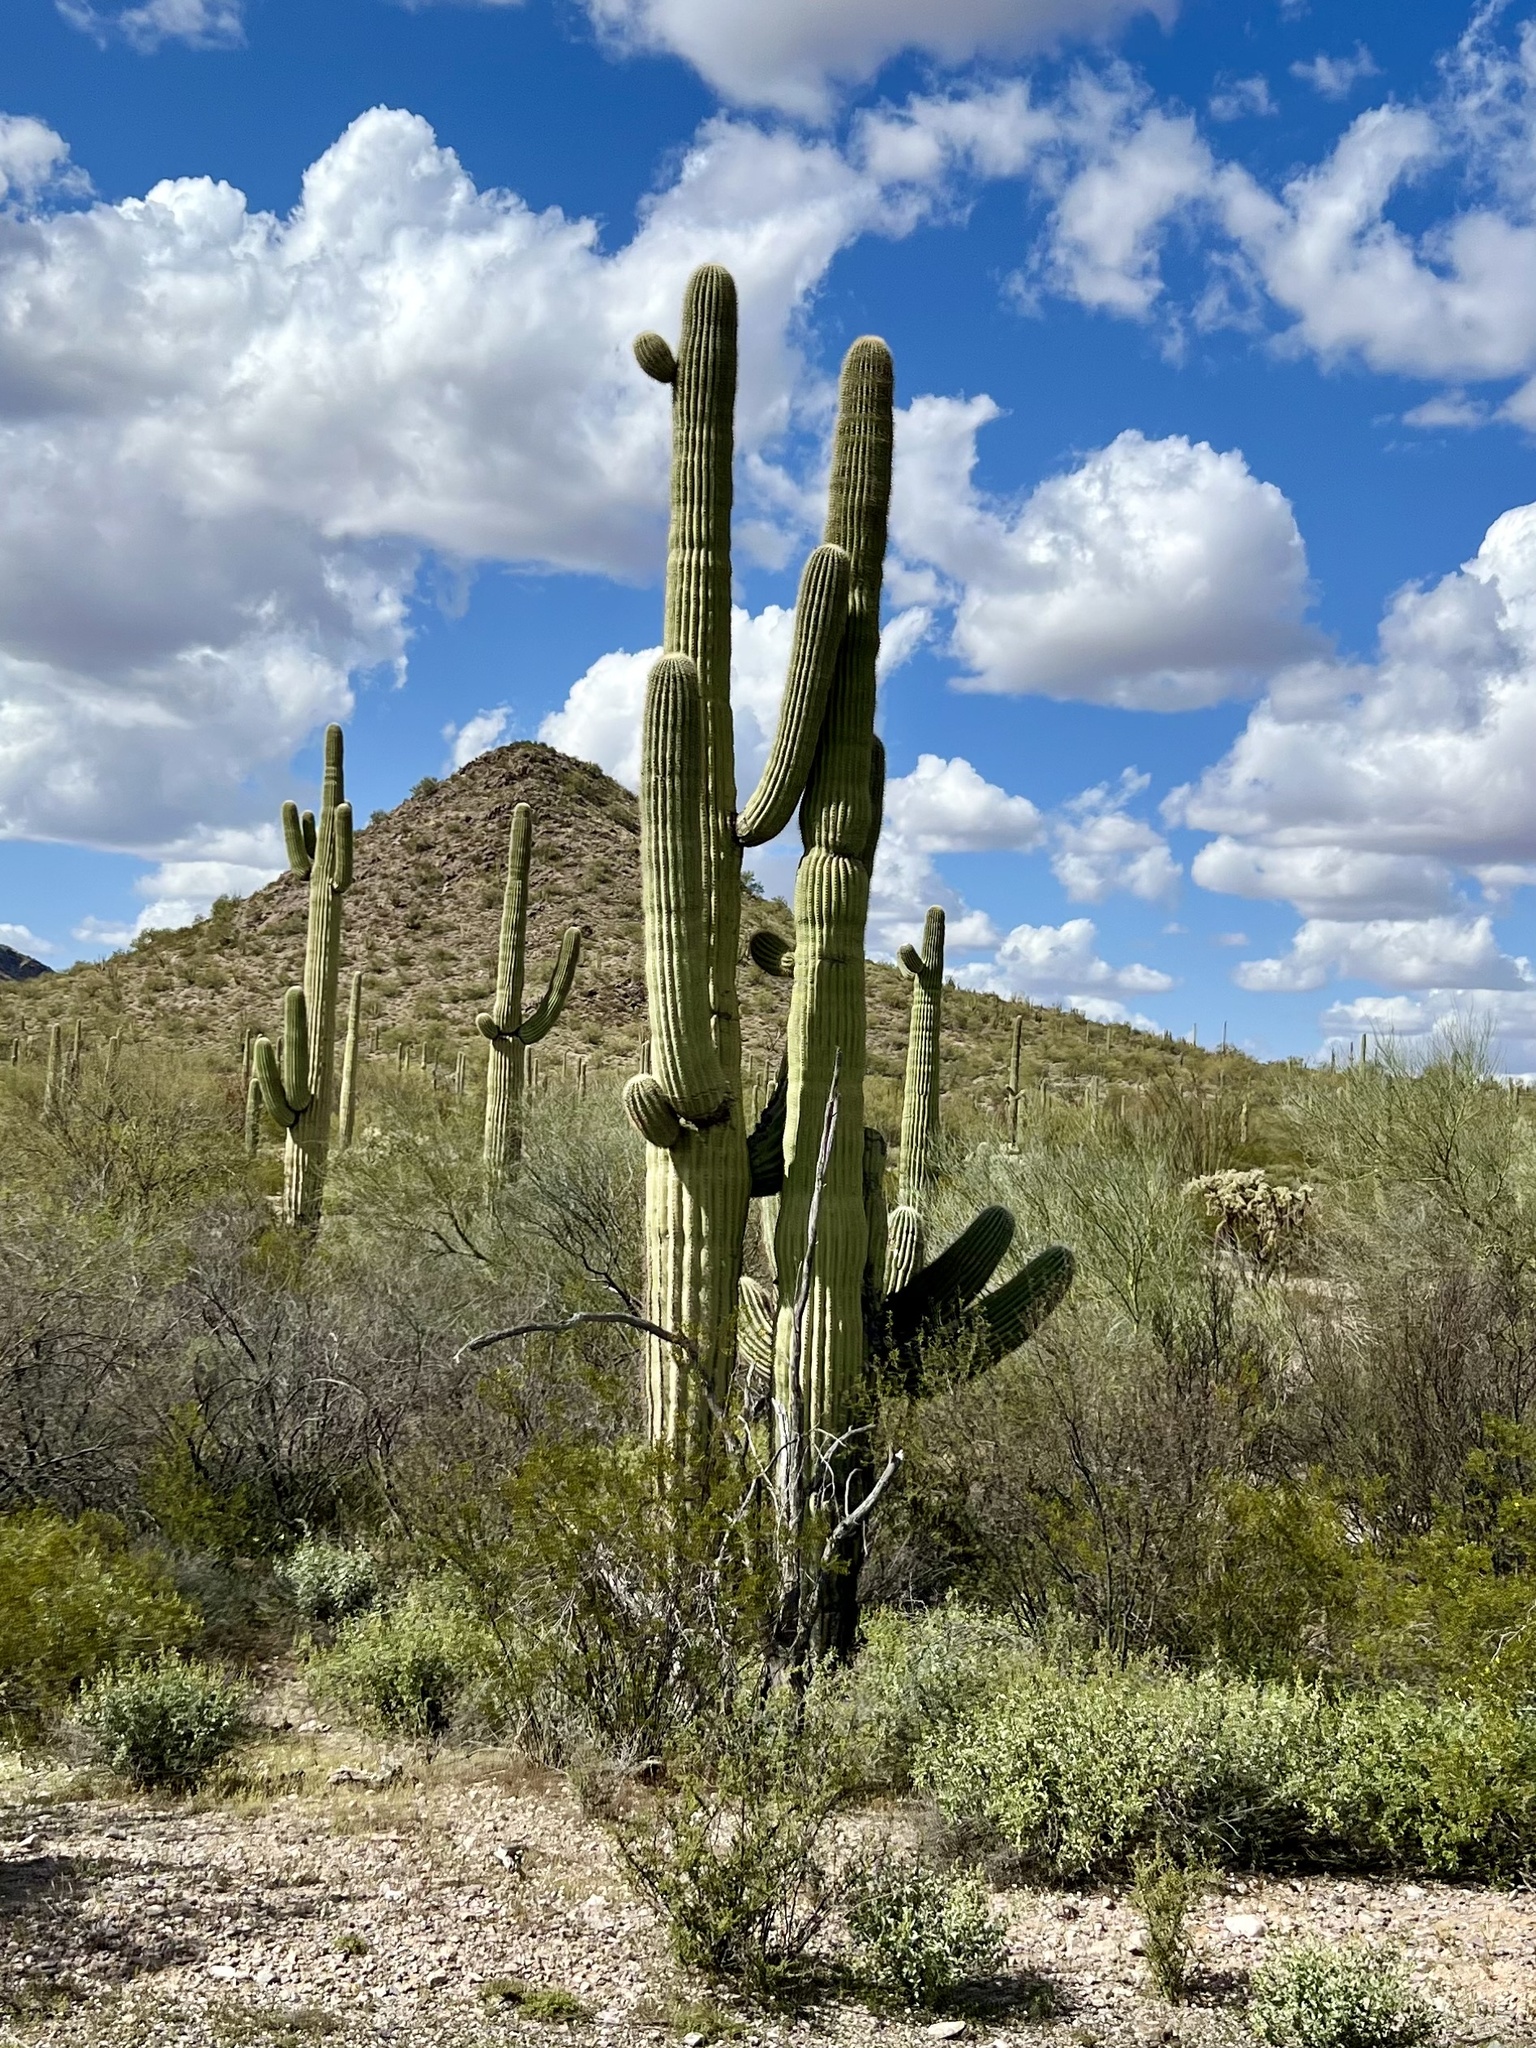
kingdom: Plantae
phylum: Tracheophyta
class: Magnoliopsida
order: Caryophyllales
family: Cactaceae
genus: Carnegiea
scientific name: Carnegiea gigantea
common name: Saguaro
